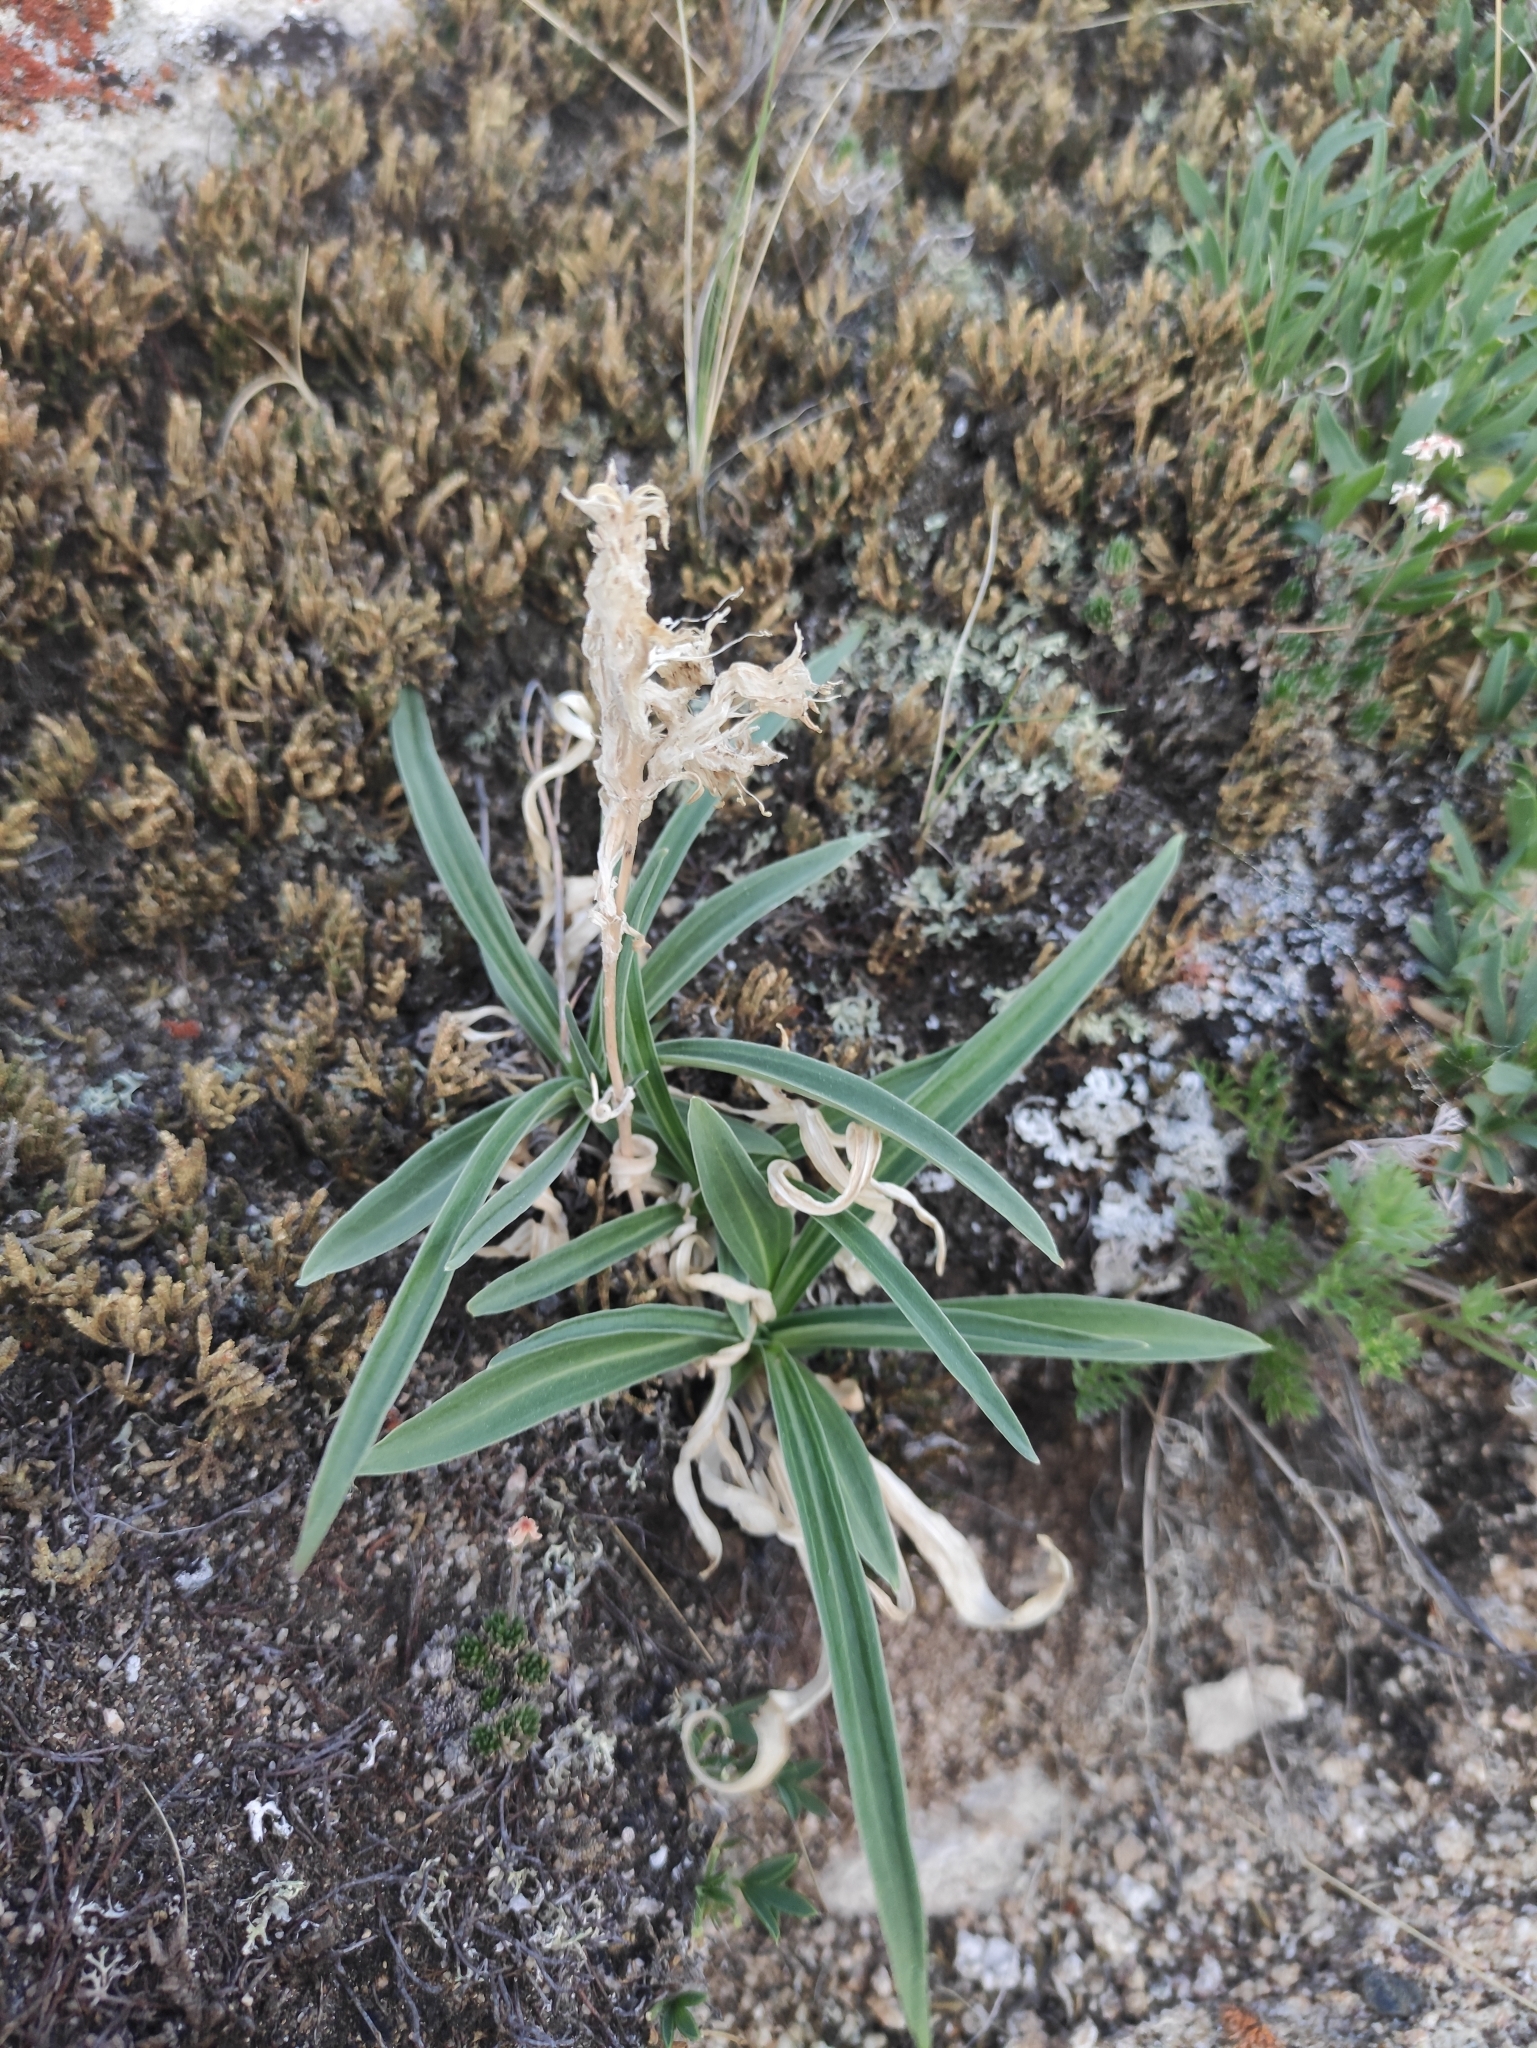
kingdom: Plantae
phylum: Tracheophyta
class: Magnoliopsida
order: Gentianales
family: Gentianaceae
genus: Gentiana
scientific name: Gentiana decumbens
